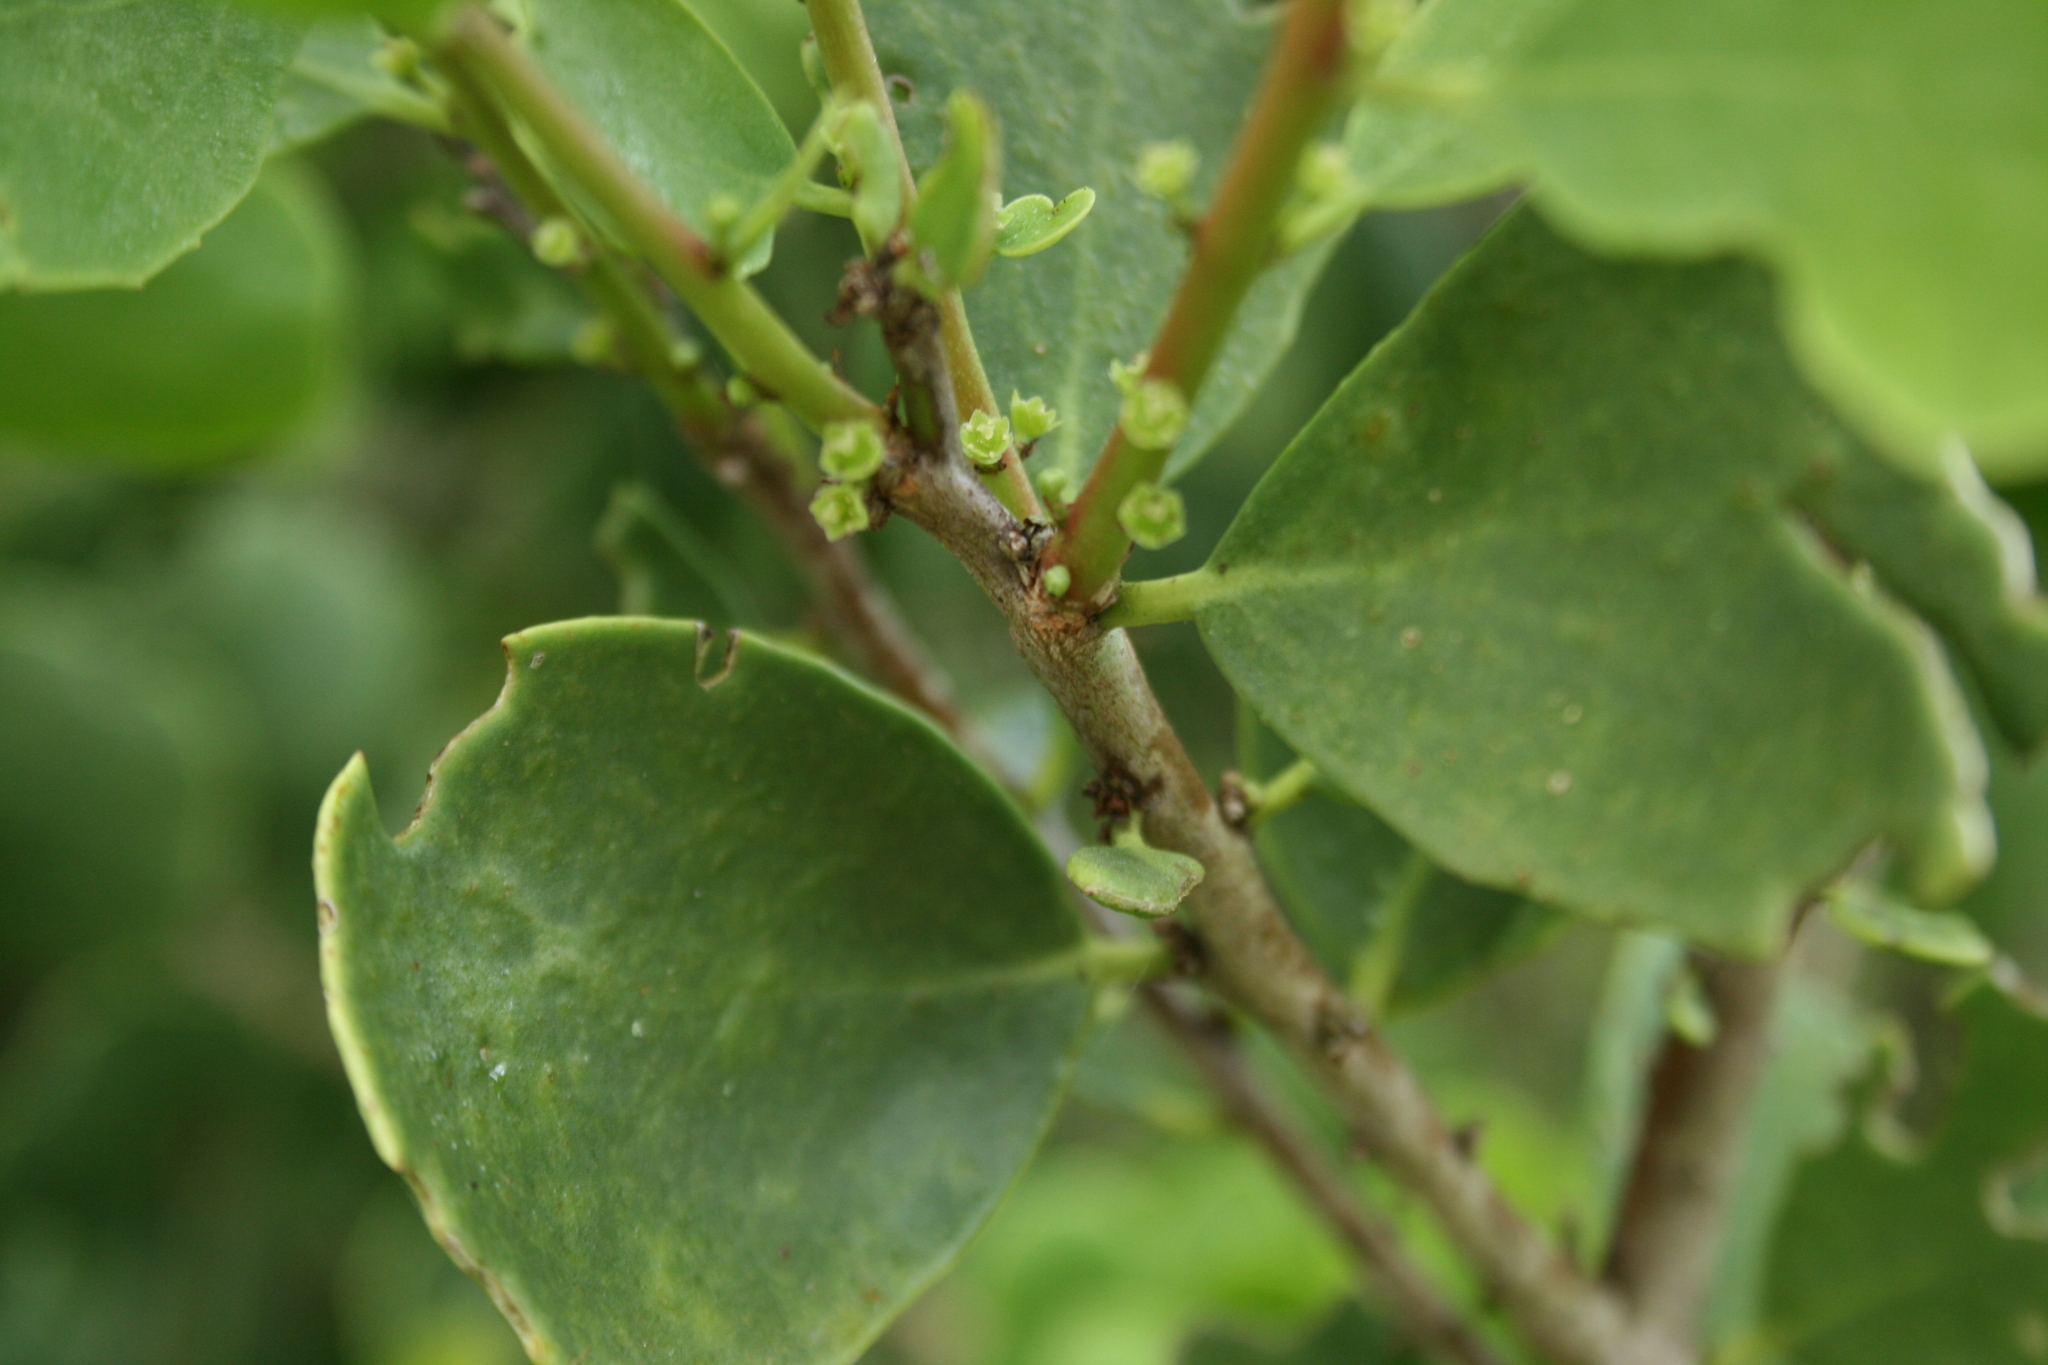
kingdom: Plantae
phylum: Tracheophyta
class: Magnoliopsida
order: Celastrales
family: Celastraceae
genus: Tricerma
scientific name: Tricerma vitis-idaeum
